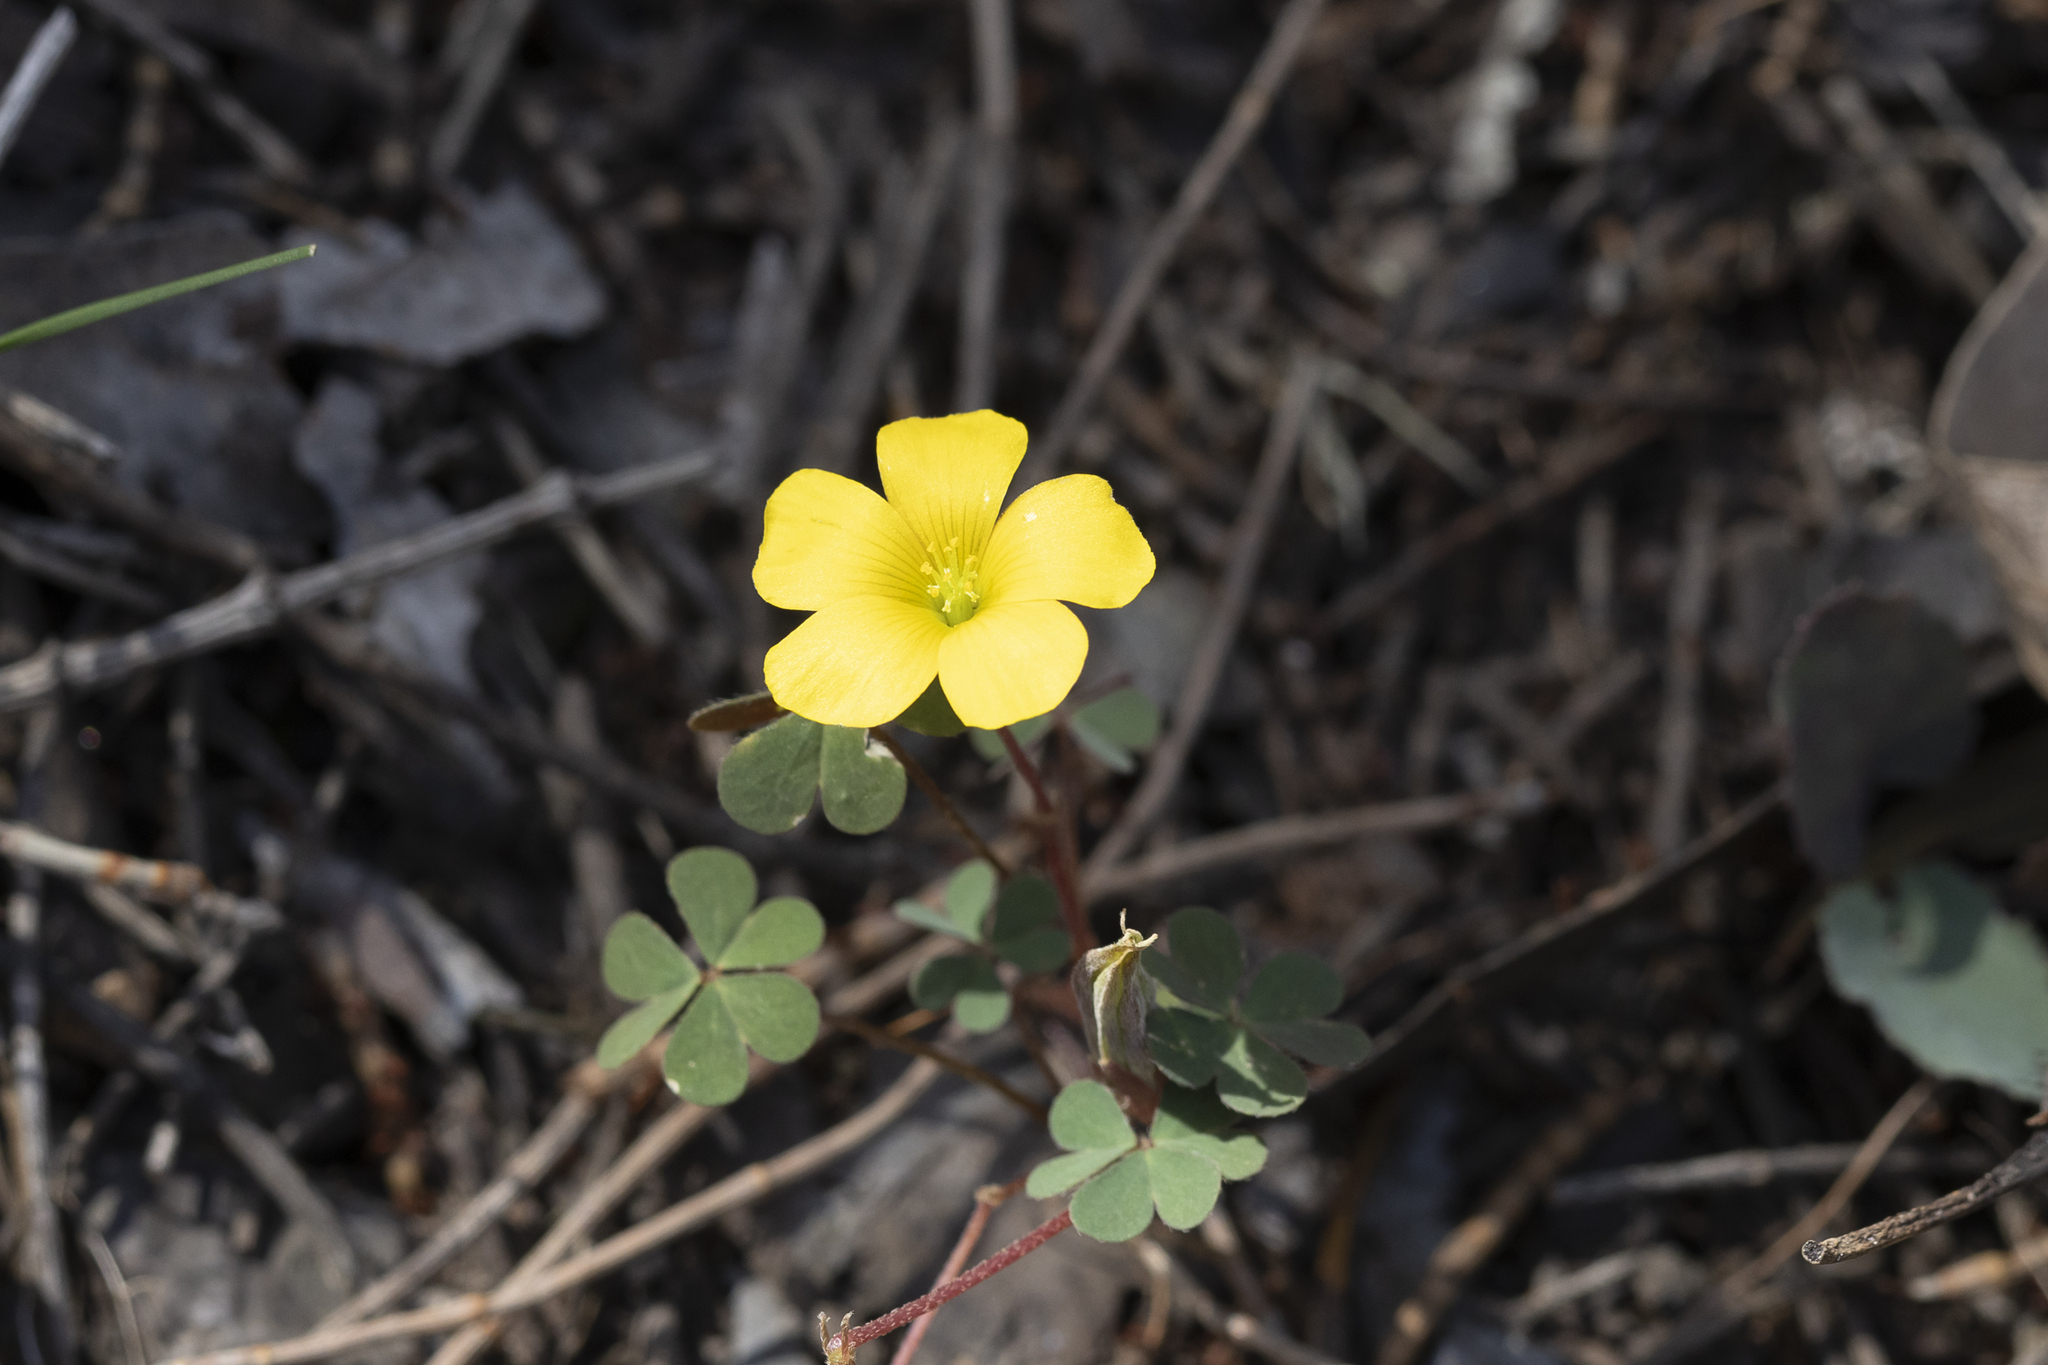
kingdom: Plantae
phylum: Tracheophyta
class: Magnoliopsida
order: Oxalidales
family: Oxalidaceae
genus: Oxalis
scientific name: Oxalis perennans
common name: Woody-rooted yellow-sorrel
